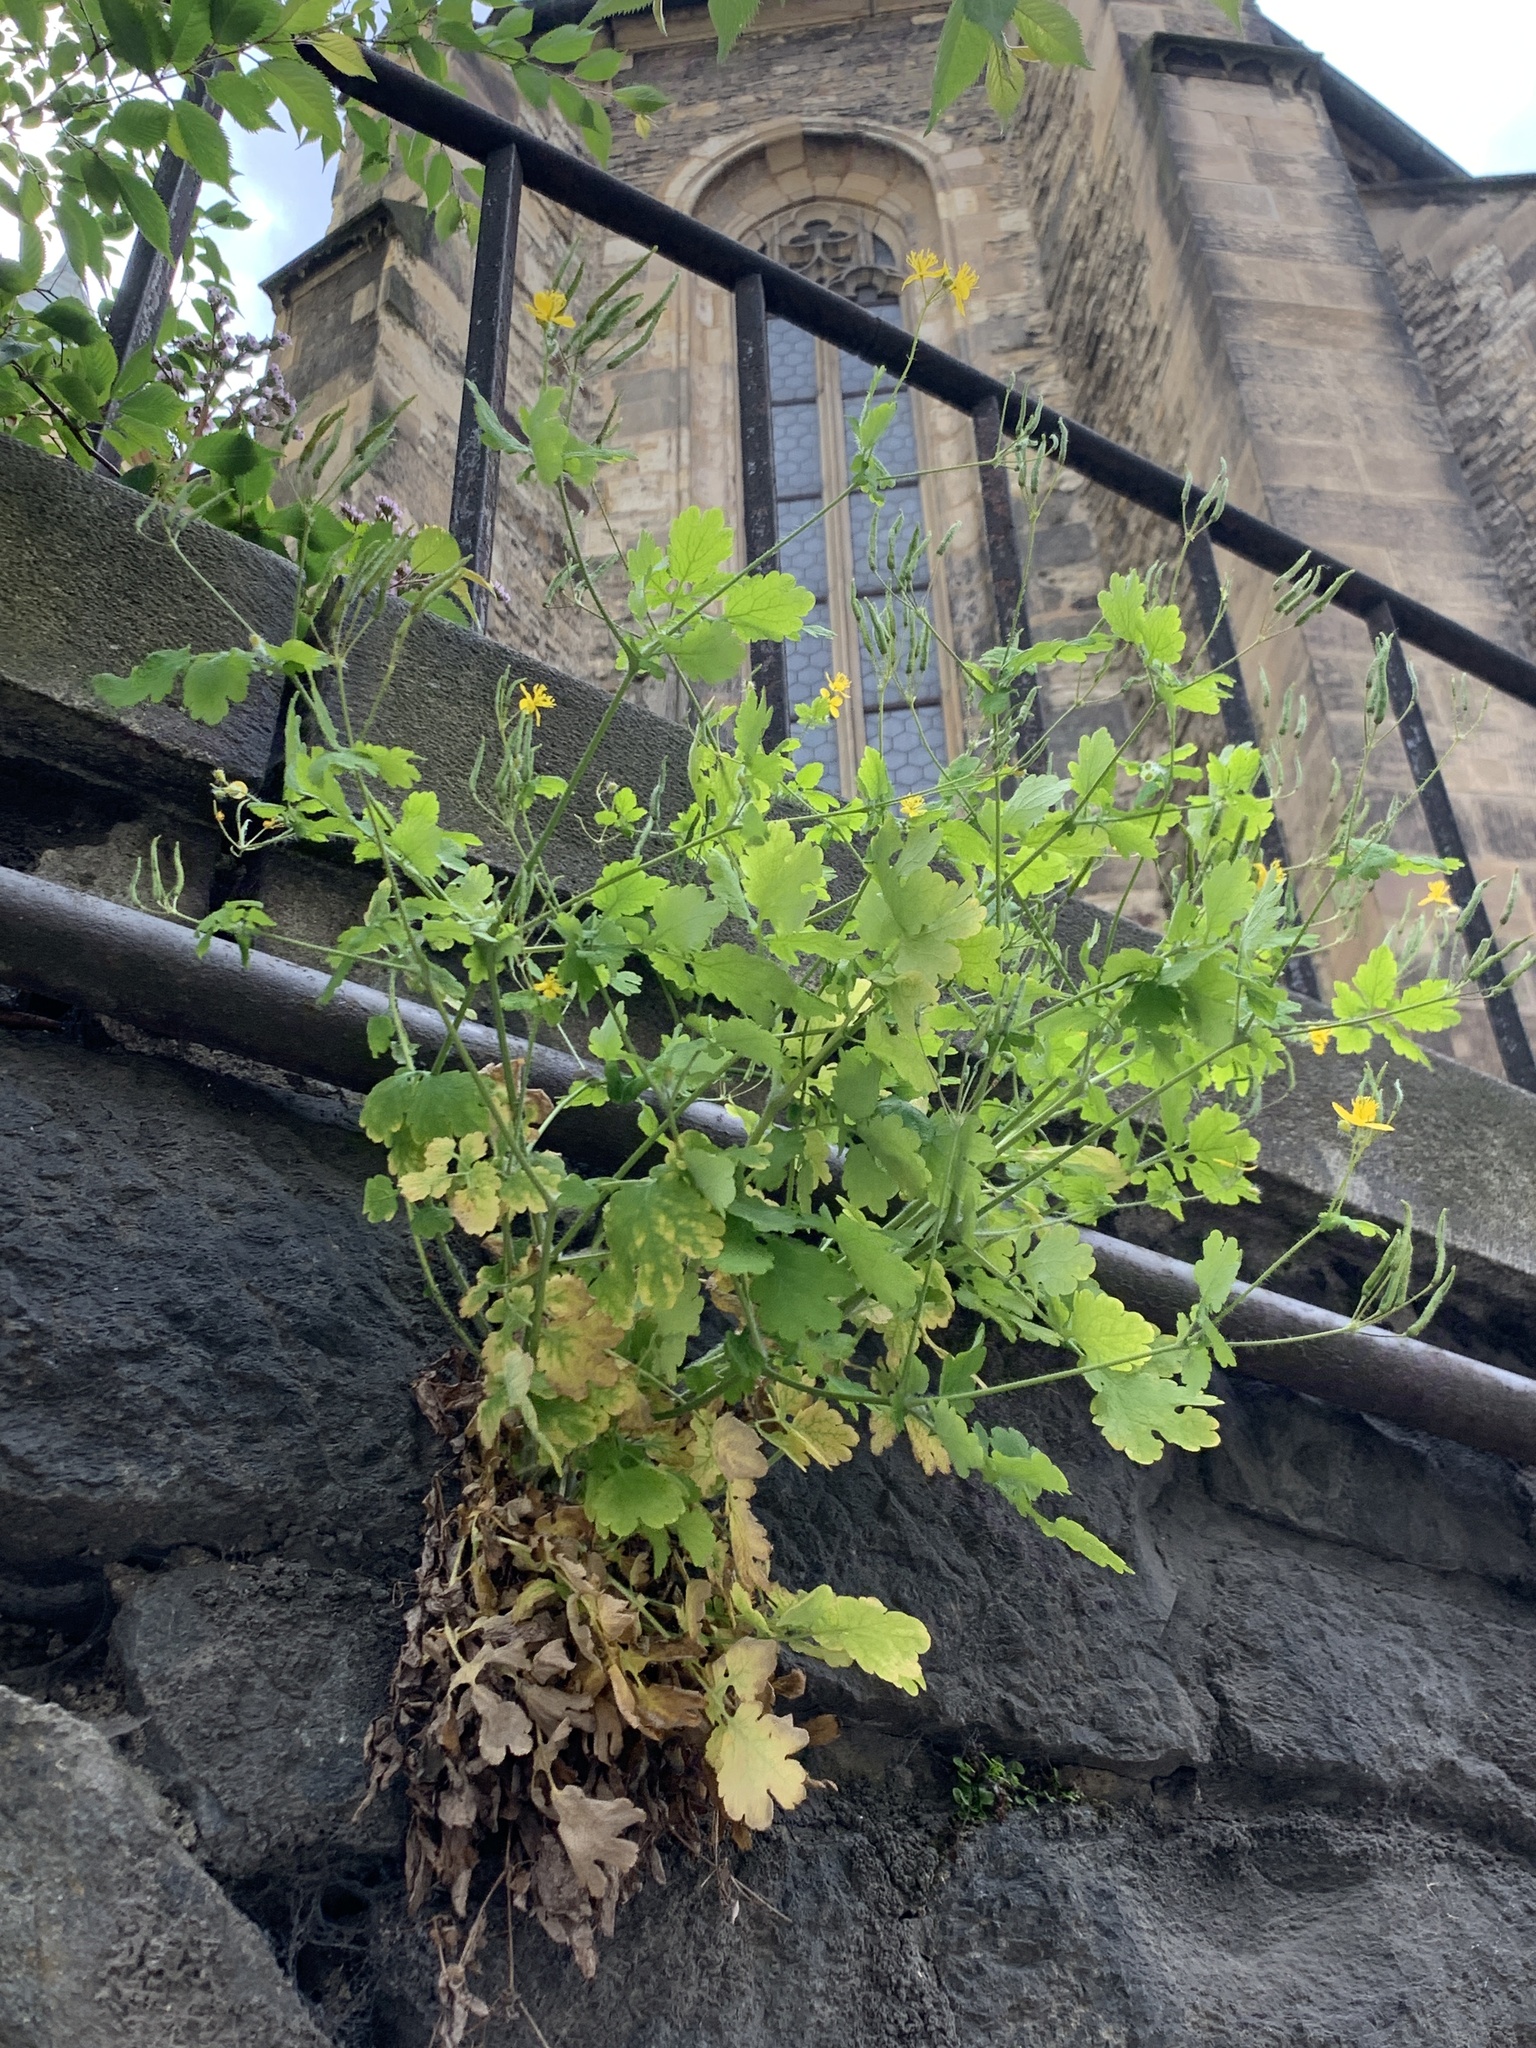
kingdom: Plantae
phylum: Tracheophyta
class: Magnoliopsida
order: Ranunculales
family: Papaveraceae
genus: Chelidonium
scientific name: Chelidonium majus
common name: Greater celandine
